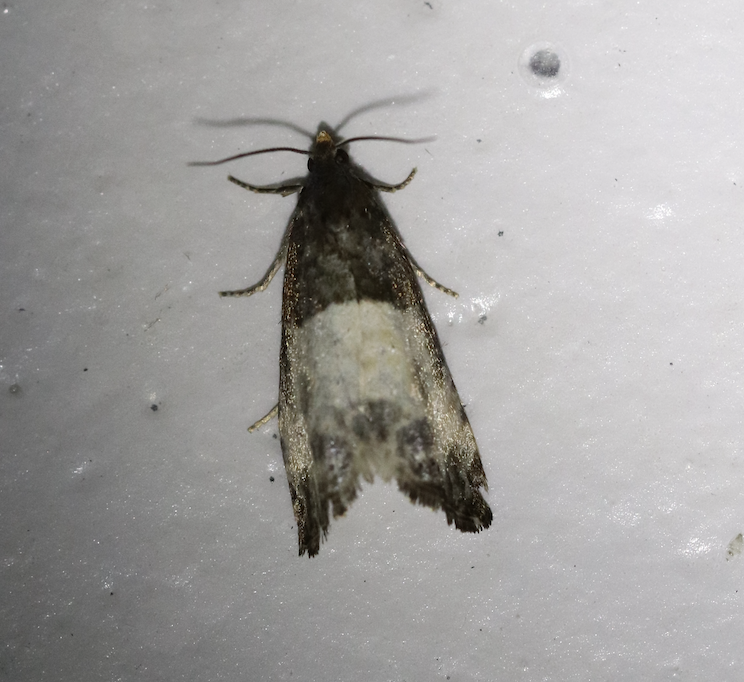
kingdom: Animalia
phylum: Arthropoda
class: Insecta
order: Lepidoptera
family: Tortricidae
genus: Notocelia
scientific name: Notocelia cynosbatella
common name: Yellow-faced bell moth
